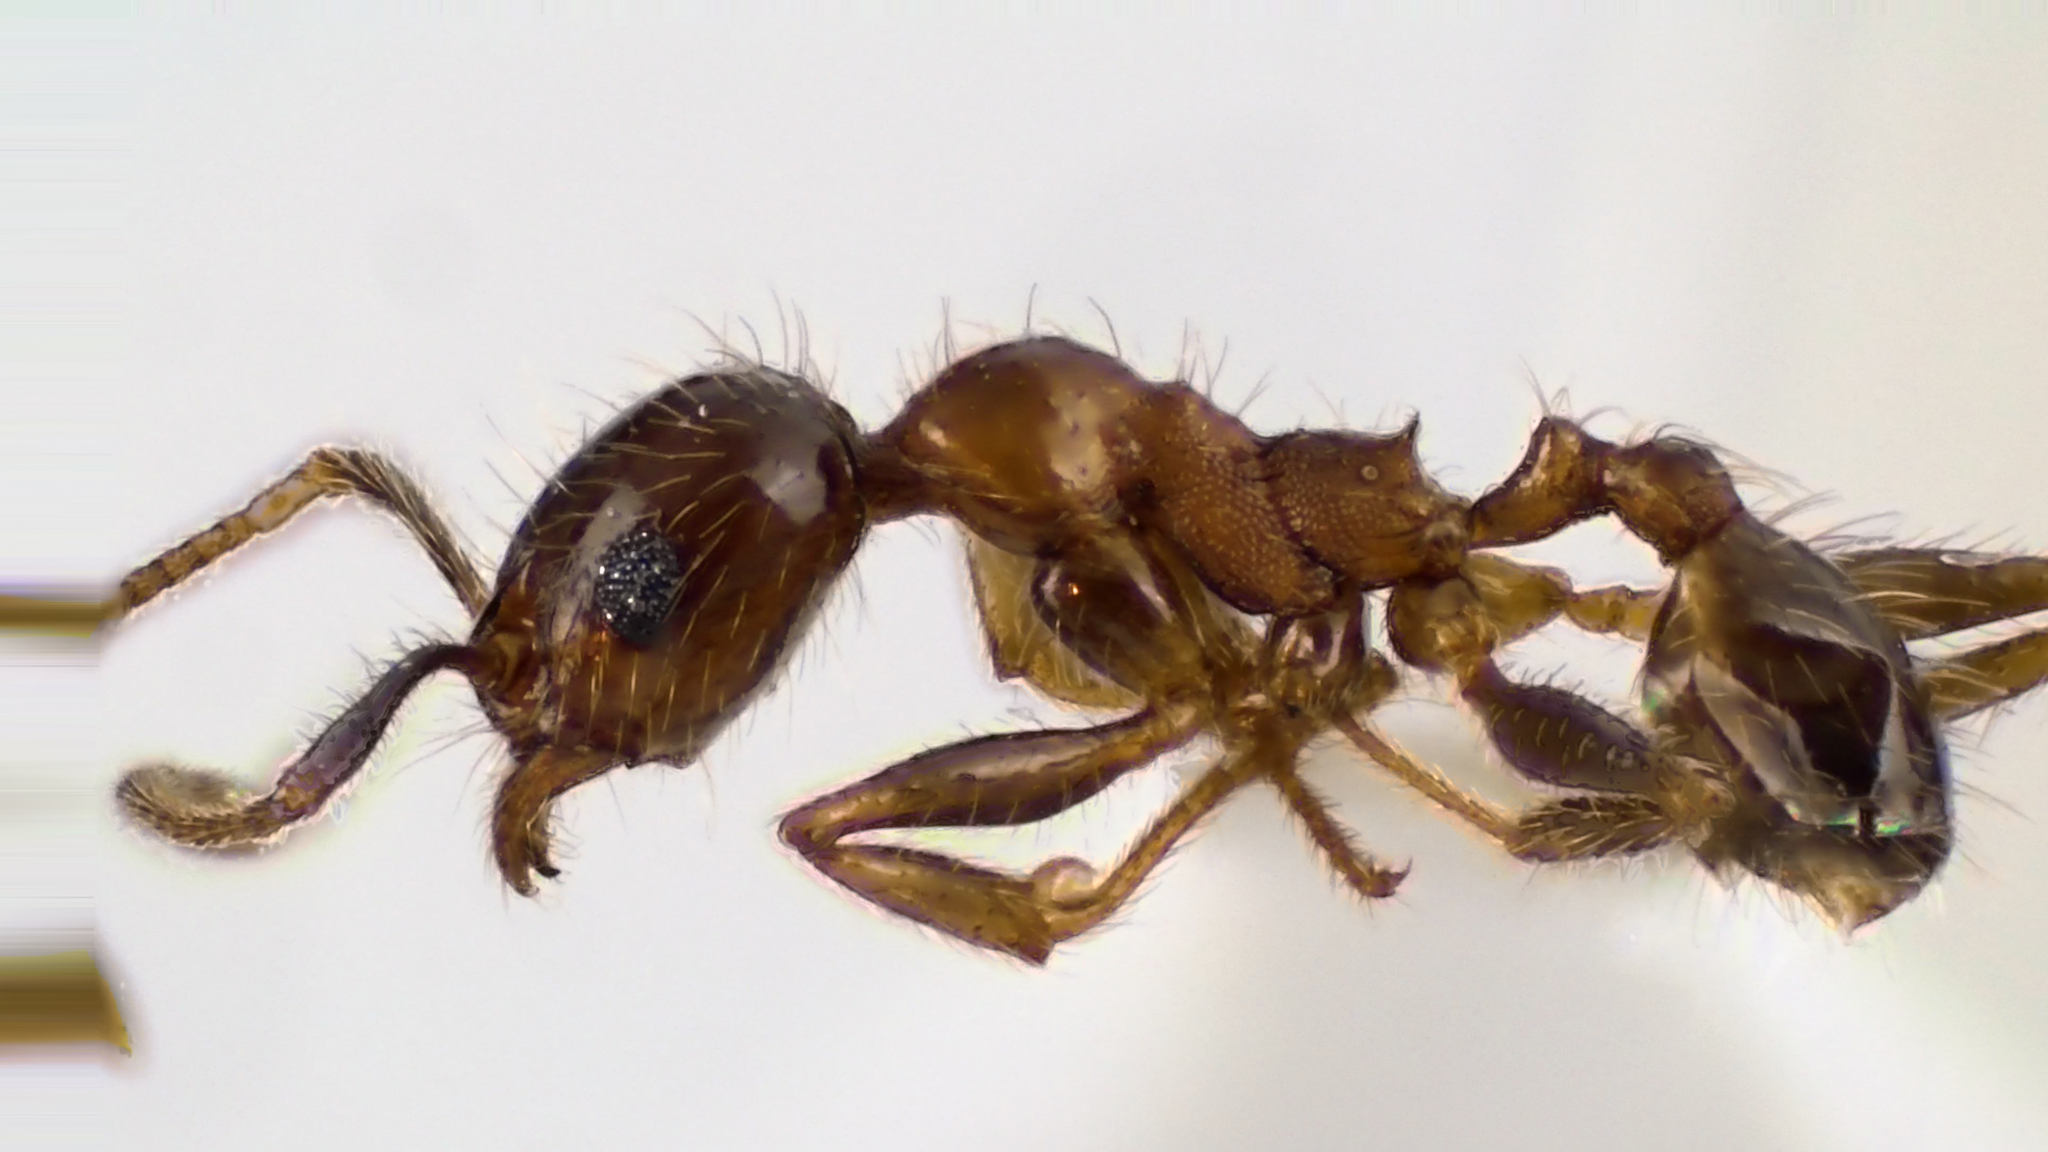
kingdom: Animalia
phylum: Arthropoda
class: Insecta
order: Hymenoptera
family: Formicidae
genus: Pheidole
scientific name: Pheidole dentata
